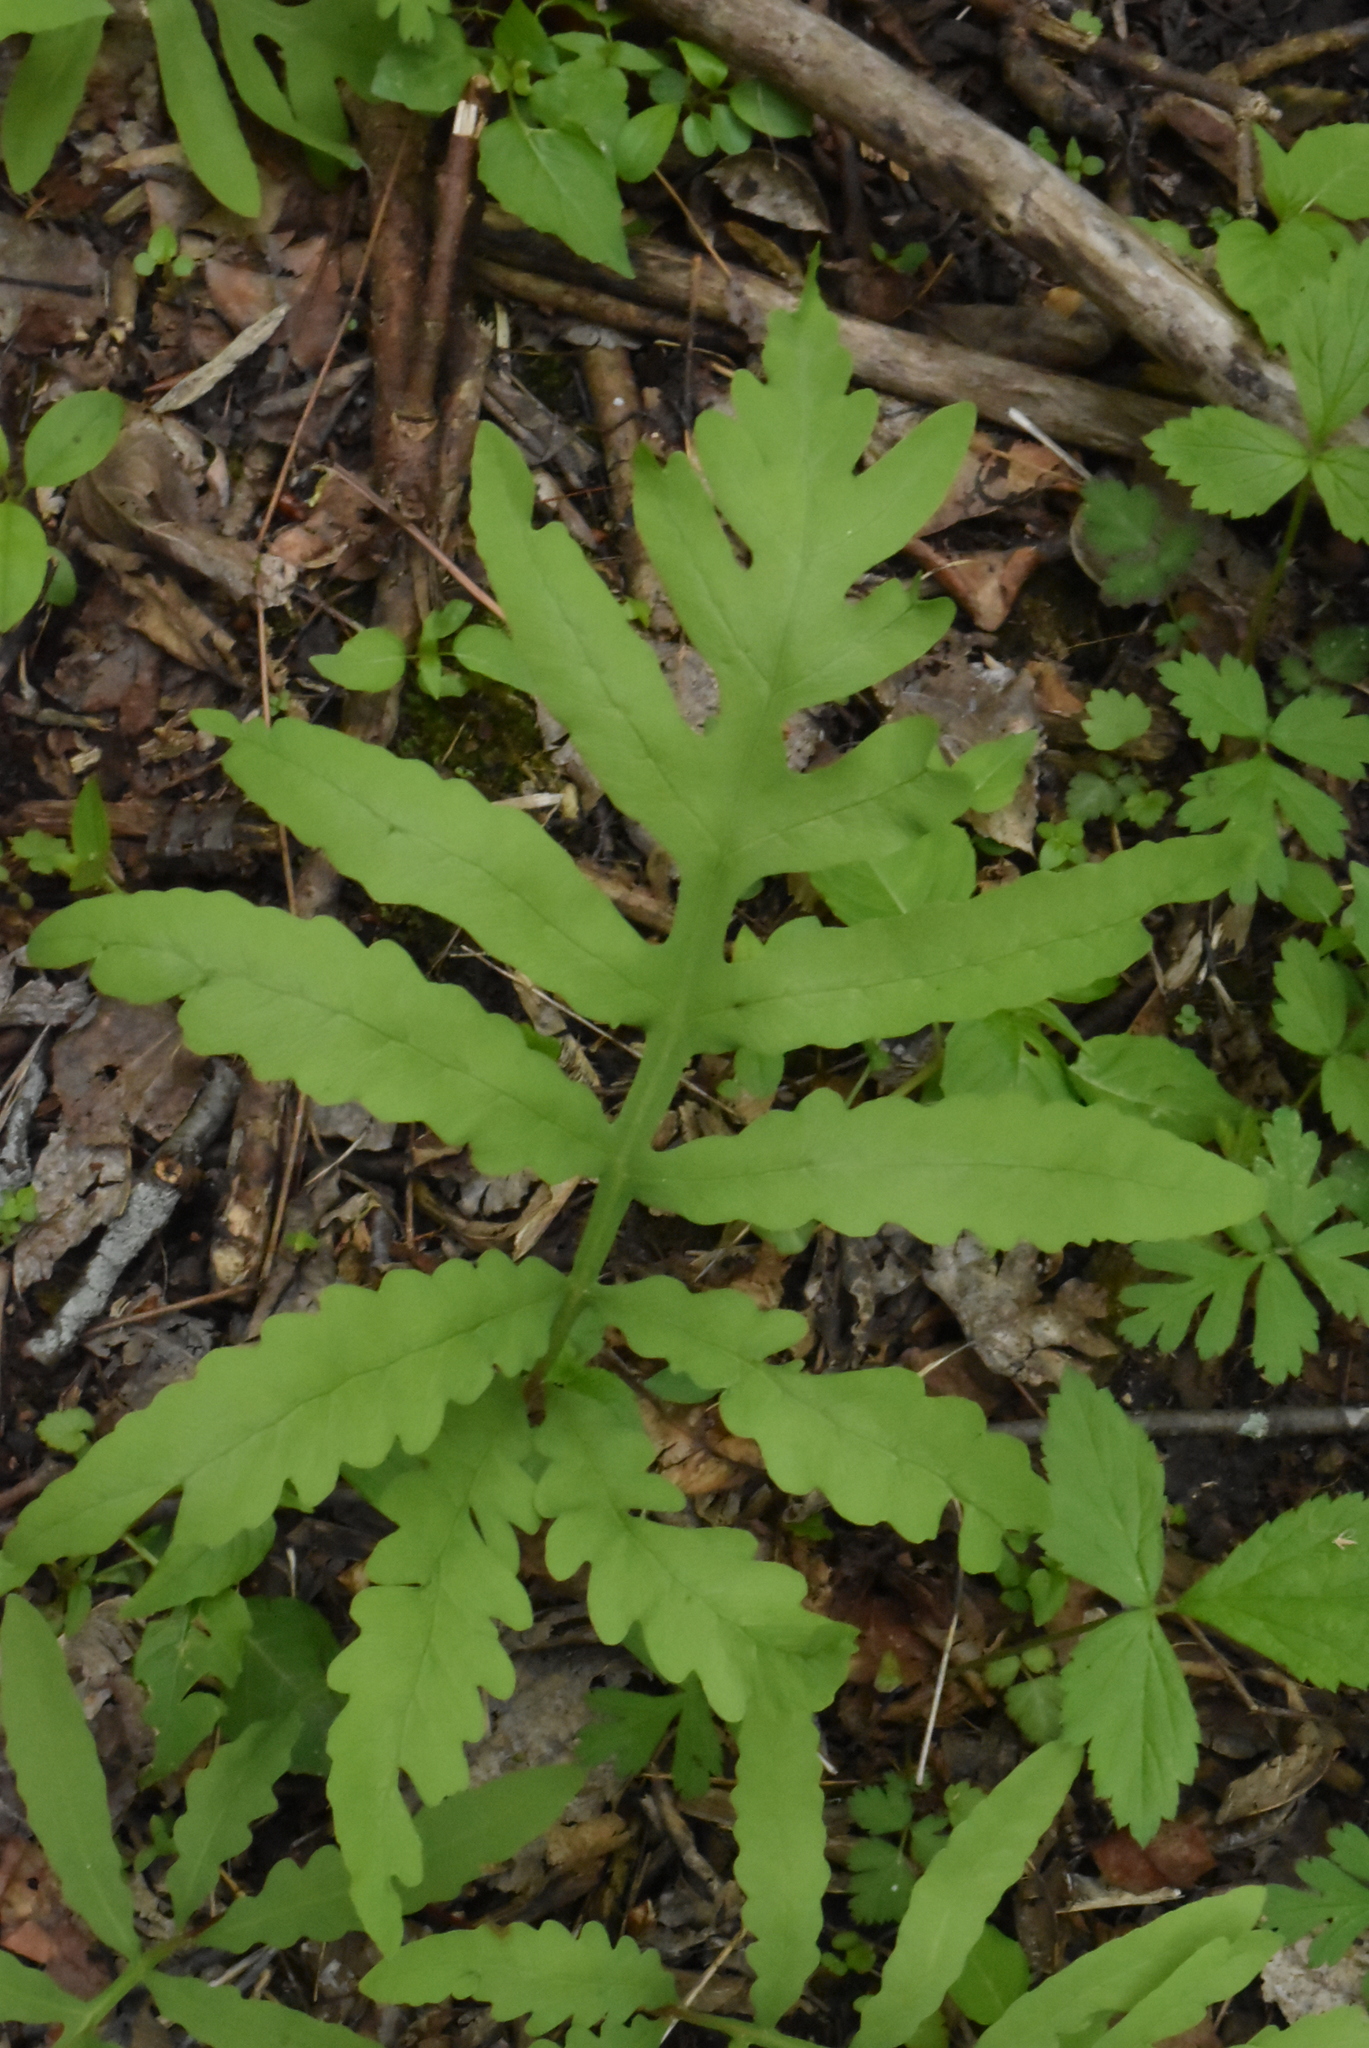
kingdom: Plantae
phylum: Tracheophyta
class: Polypodiopsida
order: Polypodiales
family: Onocleaceae
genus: Onoclea
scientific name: Onoclea sensibilis
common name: Sensitive fern
